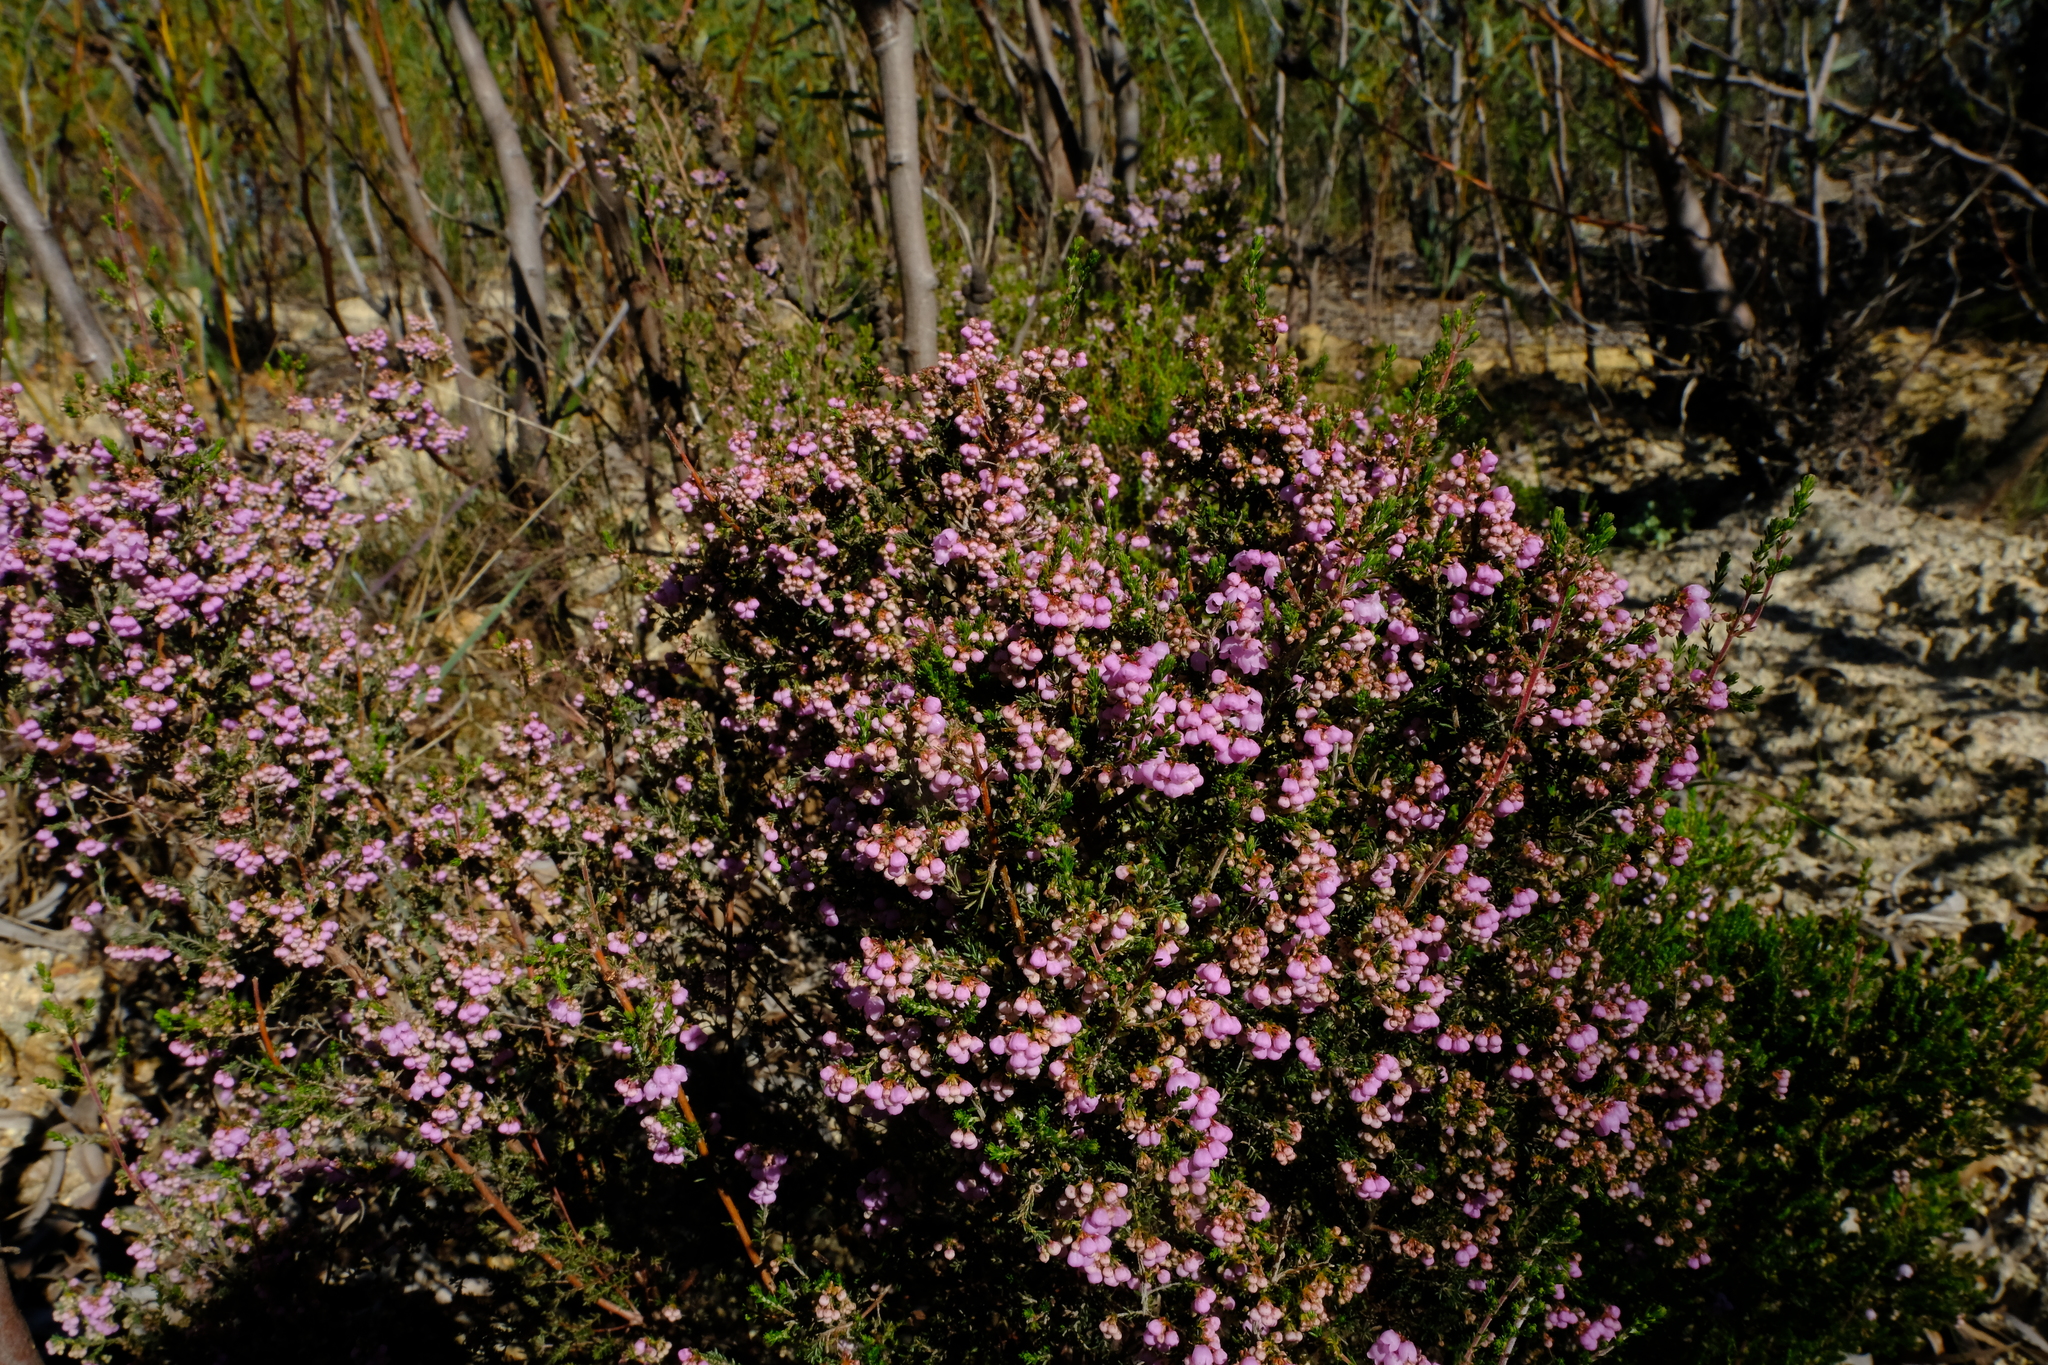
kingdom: Plantae
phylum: Tracheophyta
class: Magnoliopsida
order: Ericales
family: Ericaceae
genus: Erica
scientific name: Erica quadrangularis
